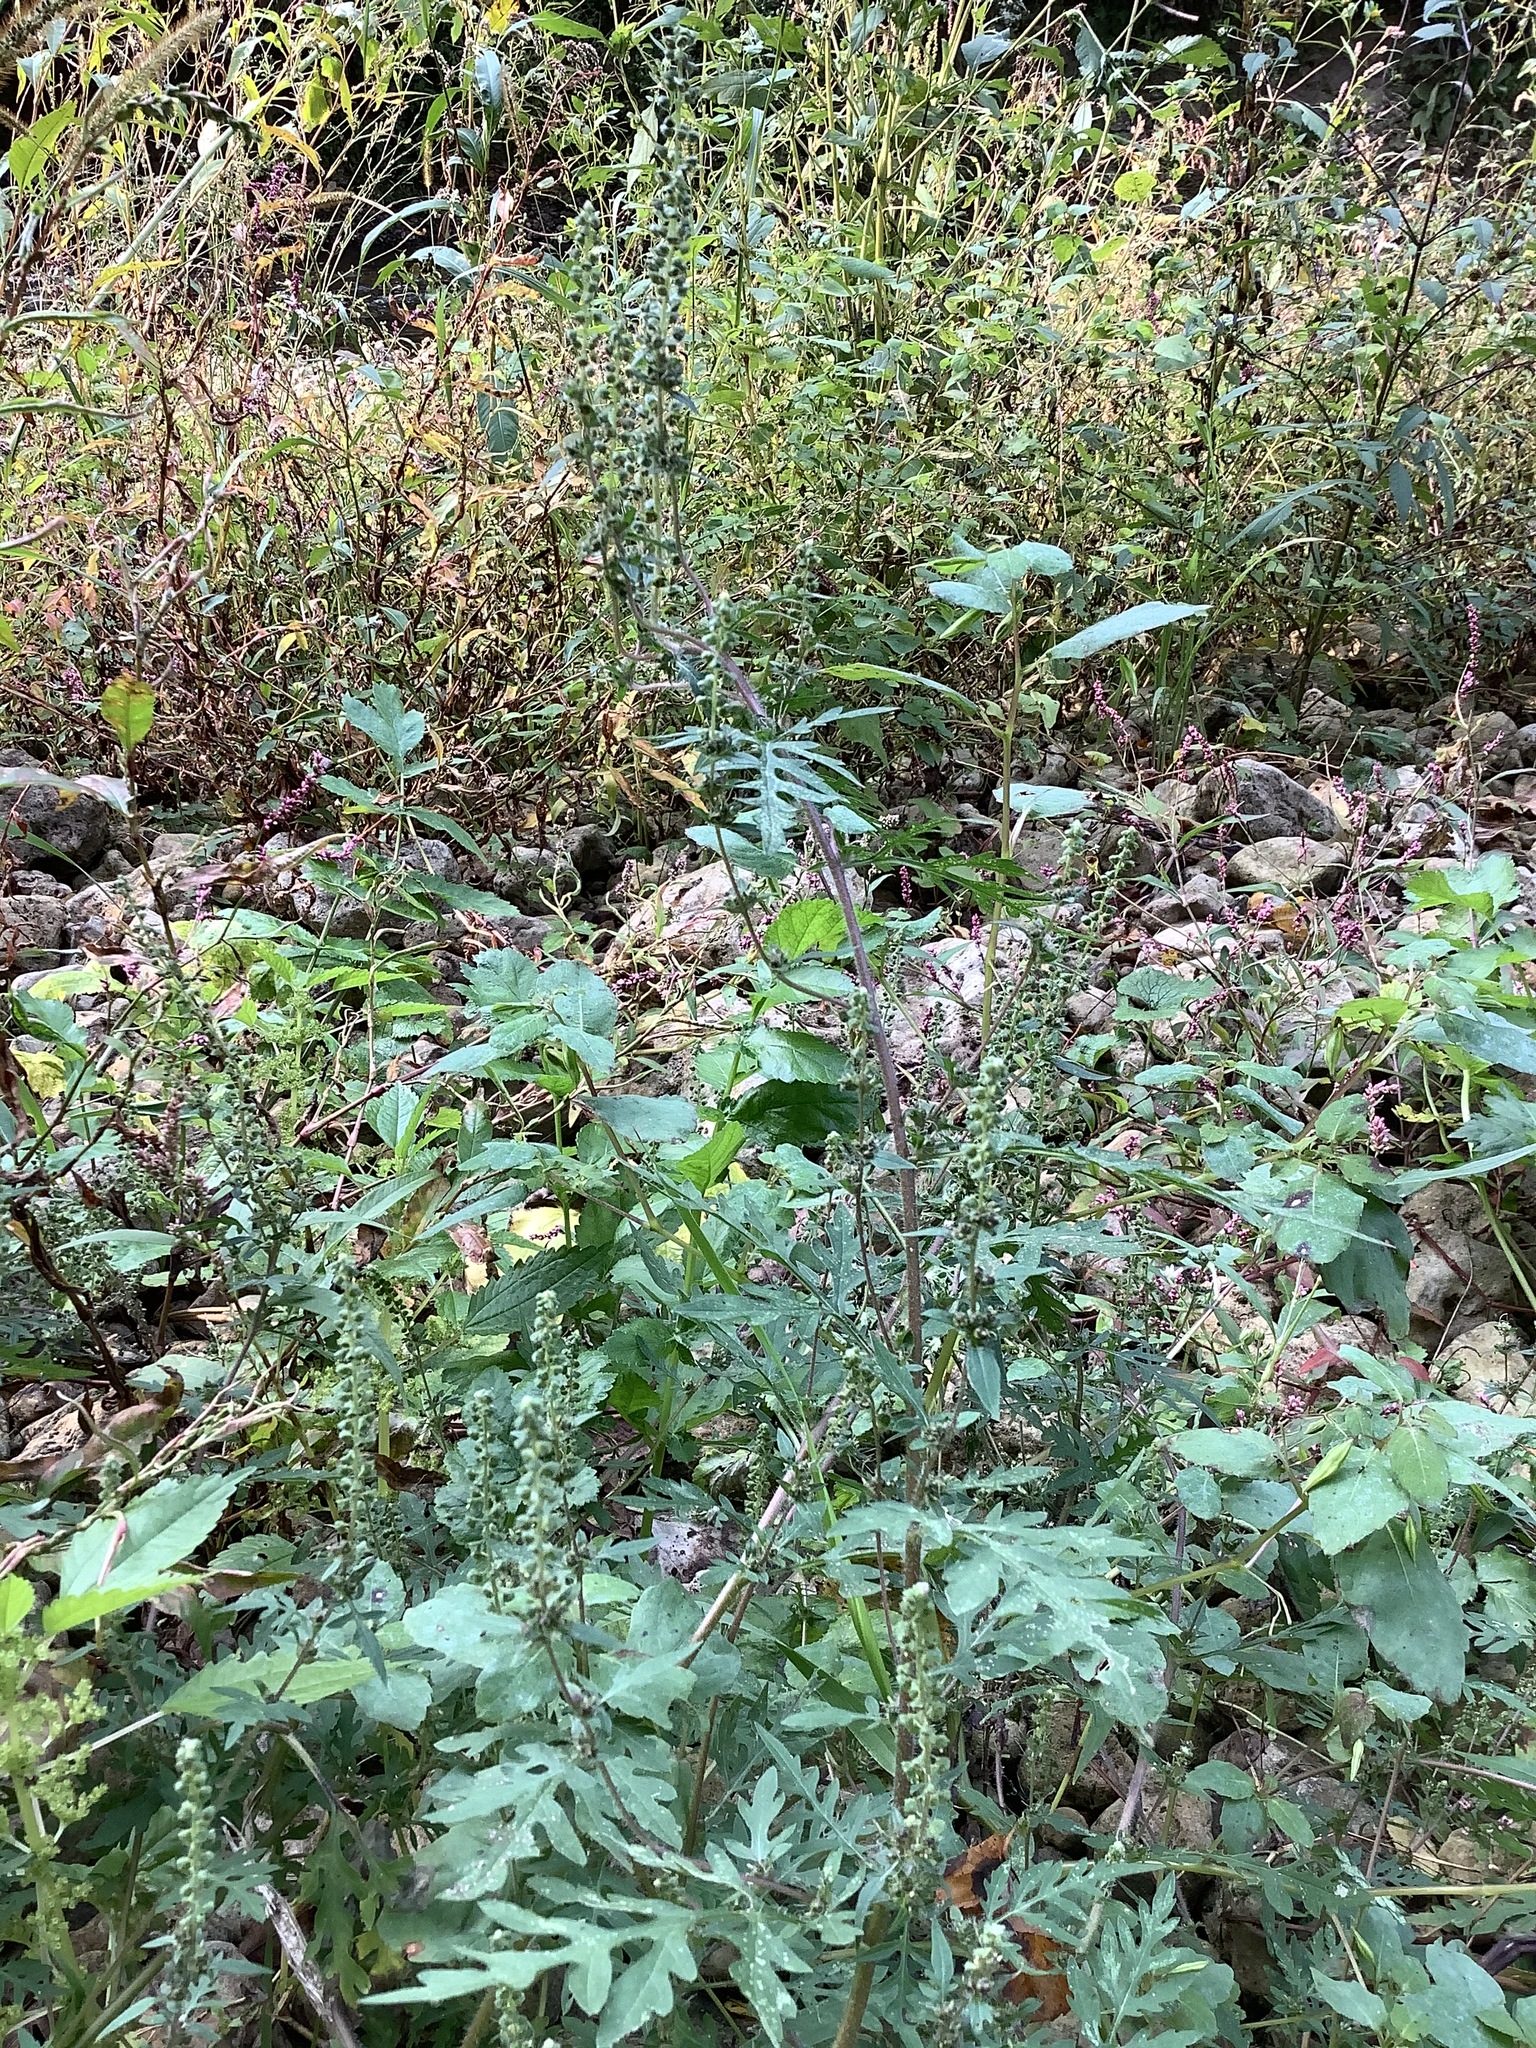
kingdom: Plantae
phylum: Tracheophyta
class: Magnoliopsida
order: Asterales
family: Asteraceae
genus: Ambrosia
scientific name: Ambrosia artemisiifolia
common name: Annual ragweed
